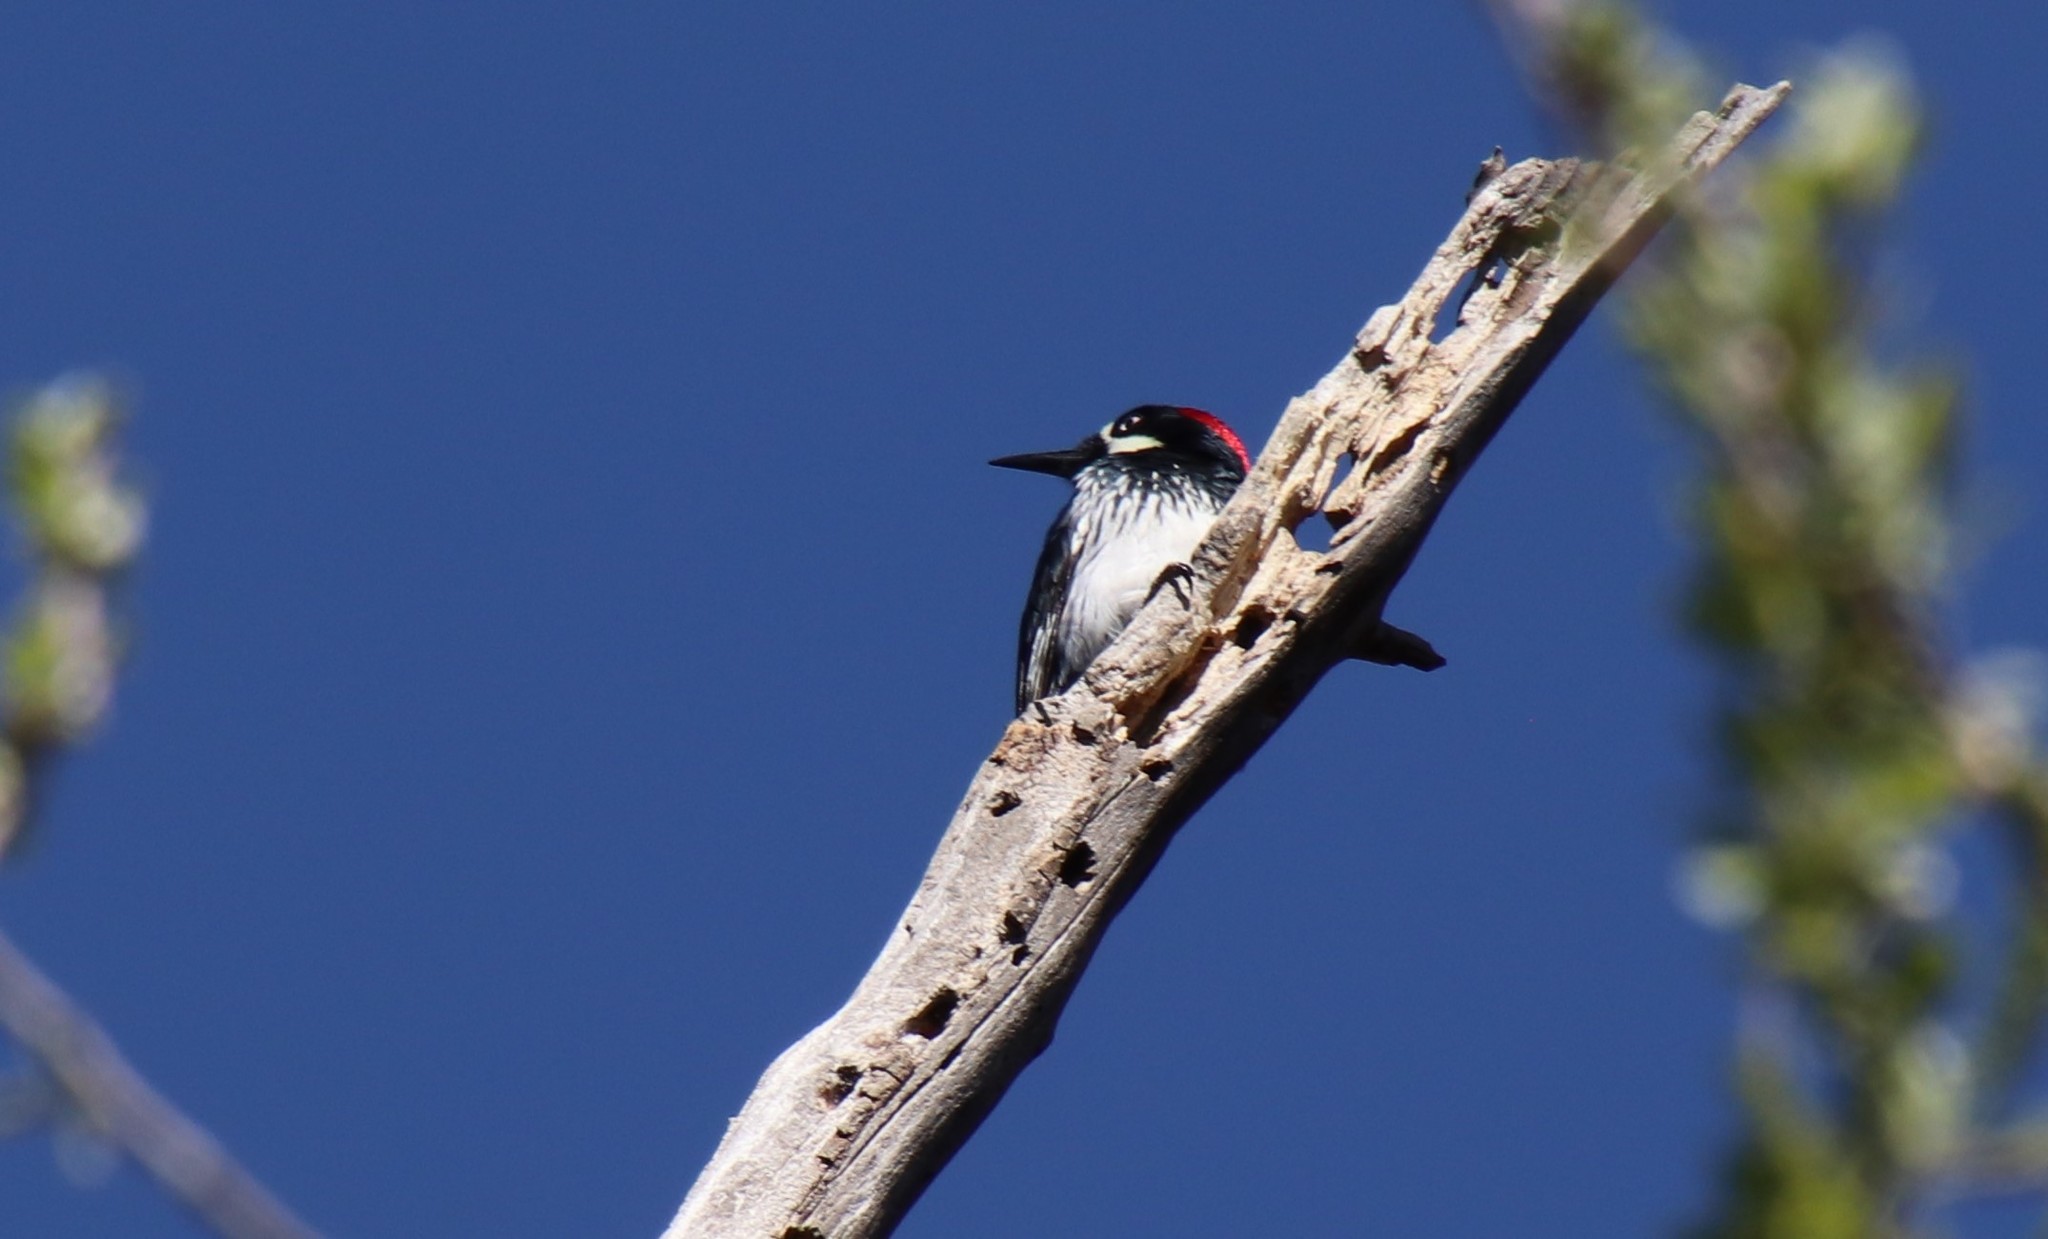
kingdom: Animalia
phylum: Chordata
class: Aves
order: Piciformes
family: Picidae
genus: Melanerpes
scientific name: Melanerpes formicivorus
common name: Acorn woodpecker
